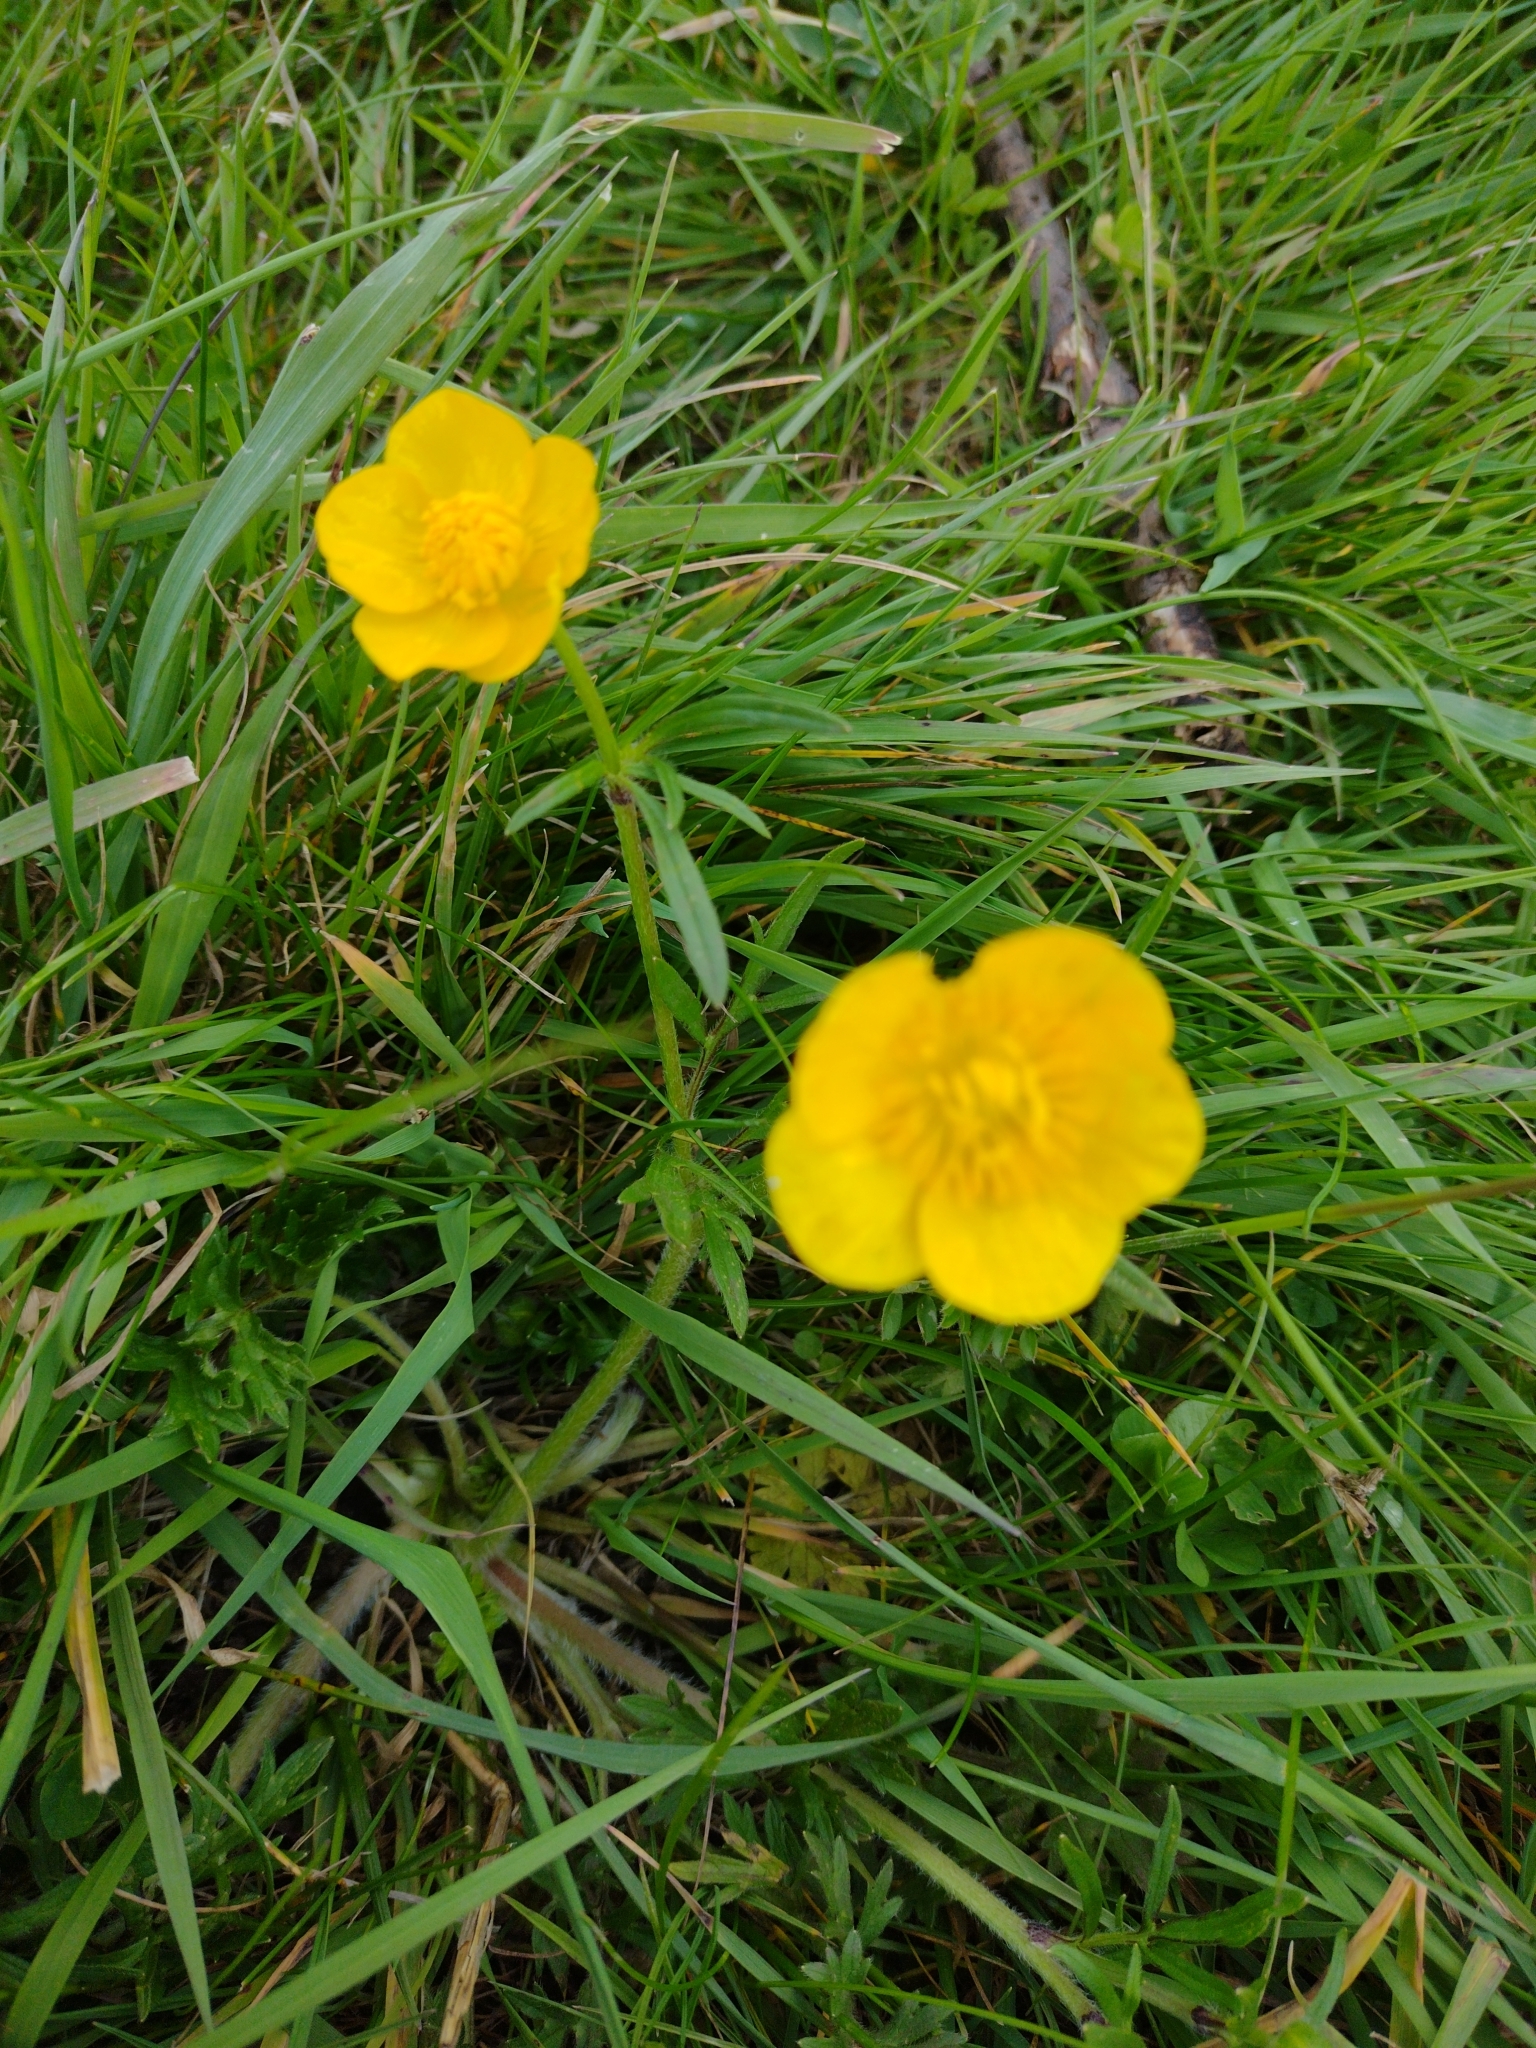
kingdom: Plantae
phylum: Tracheophyta
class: Magnoliopsida
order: Ranunculales
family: Ranunculaceae
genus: Ranunculus
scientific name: Ranunculus bulbosus
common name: Bulbous buttercup
